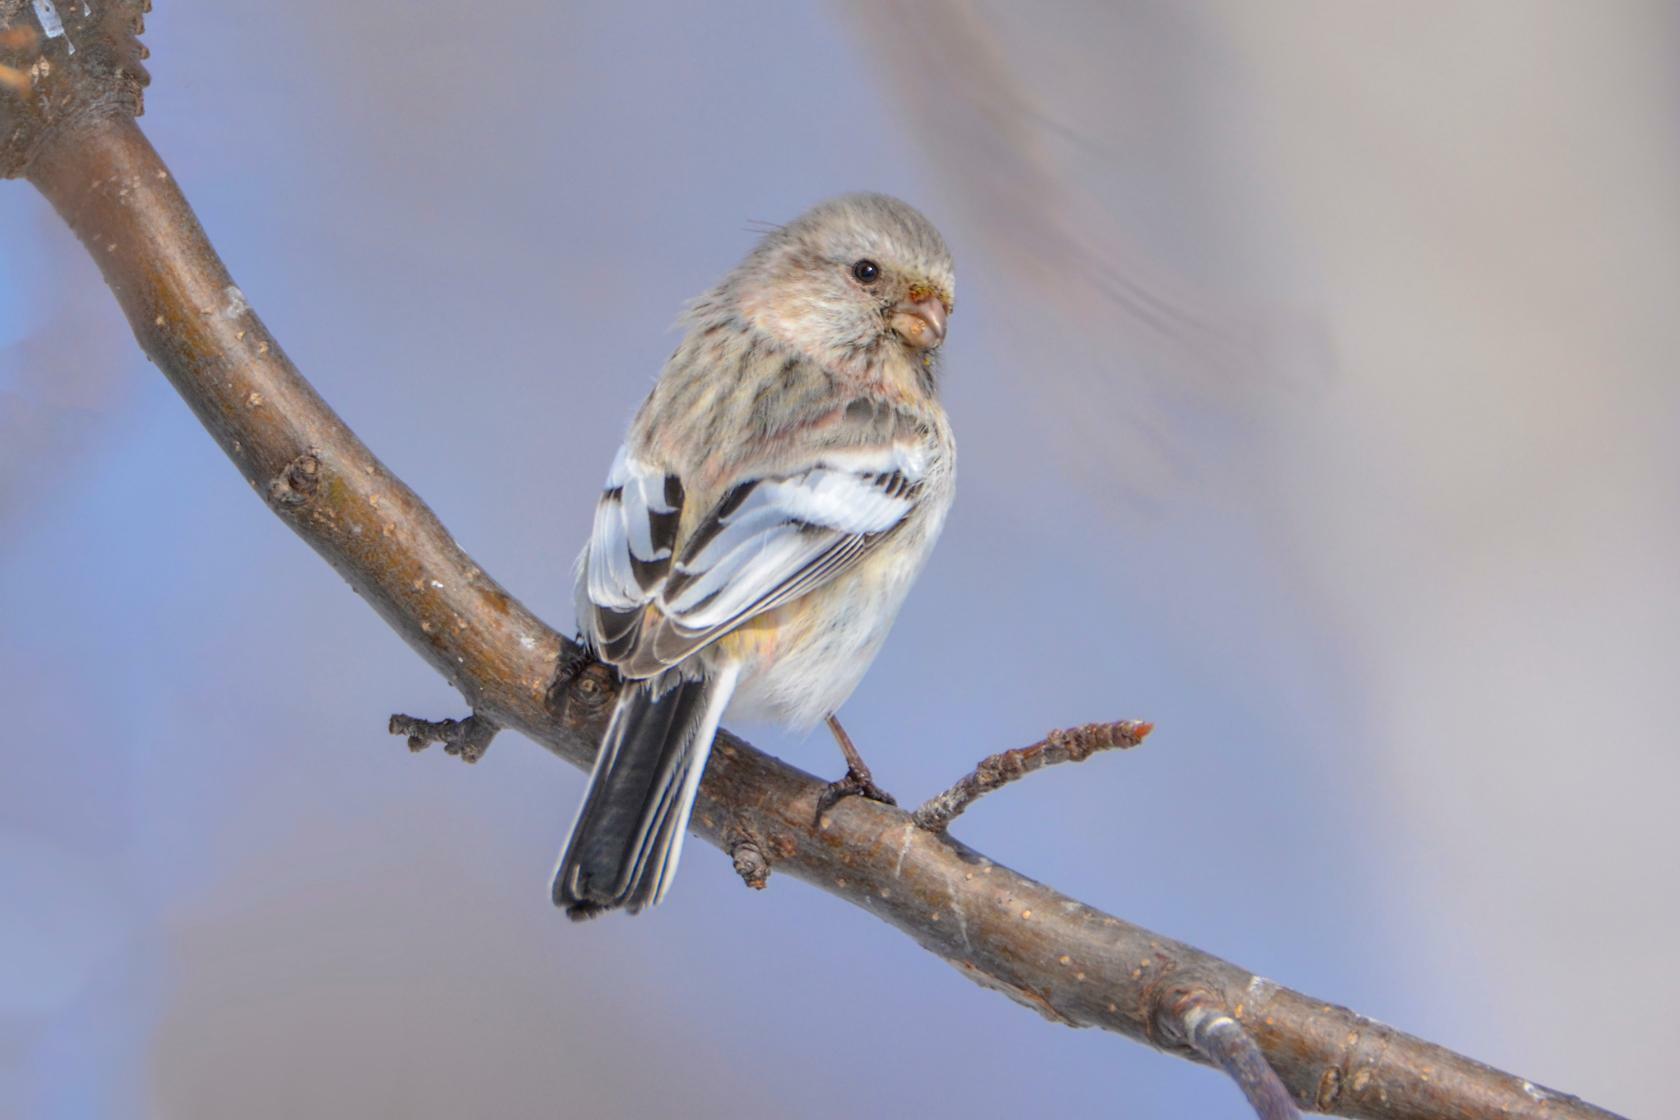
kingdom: Animalia
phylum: Chordata
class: Aves
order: Passeriformes
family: Fringillidae
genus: Carpodacus
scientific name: Carpodacus sibiricus
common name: Long-tailed rosefinch
